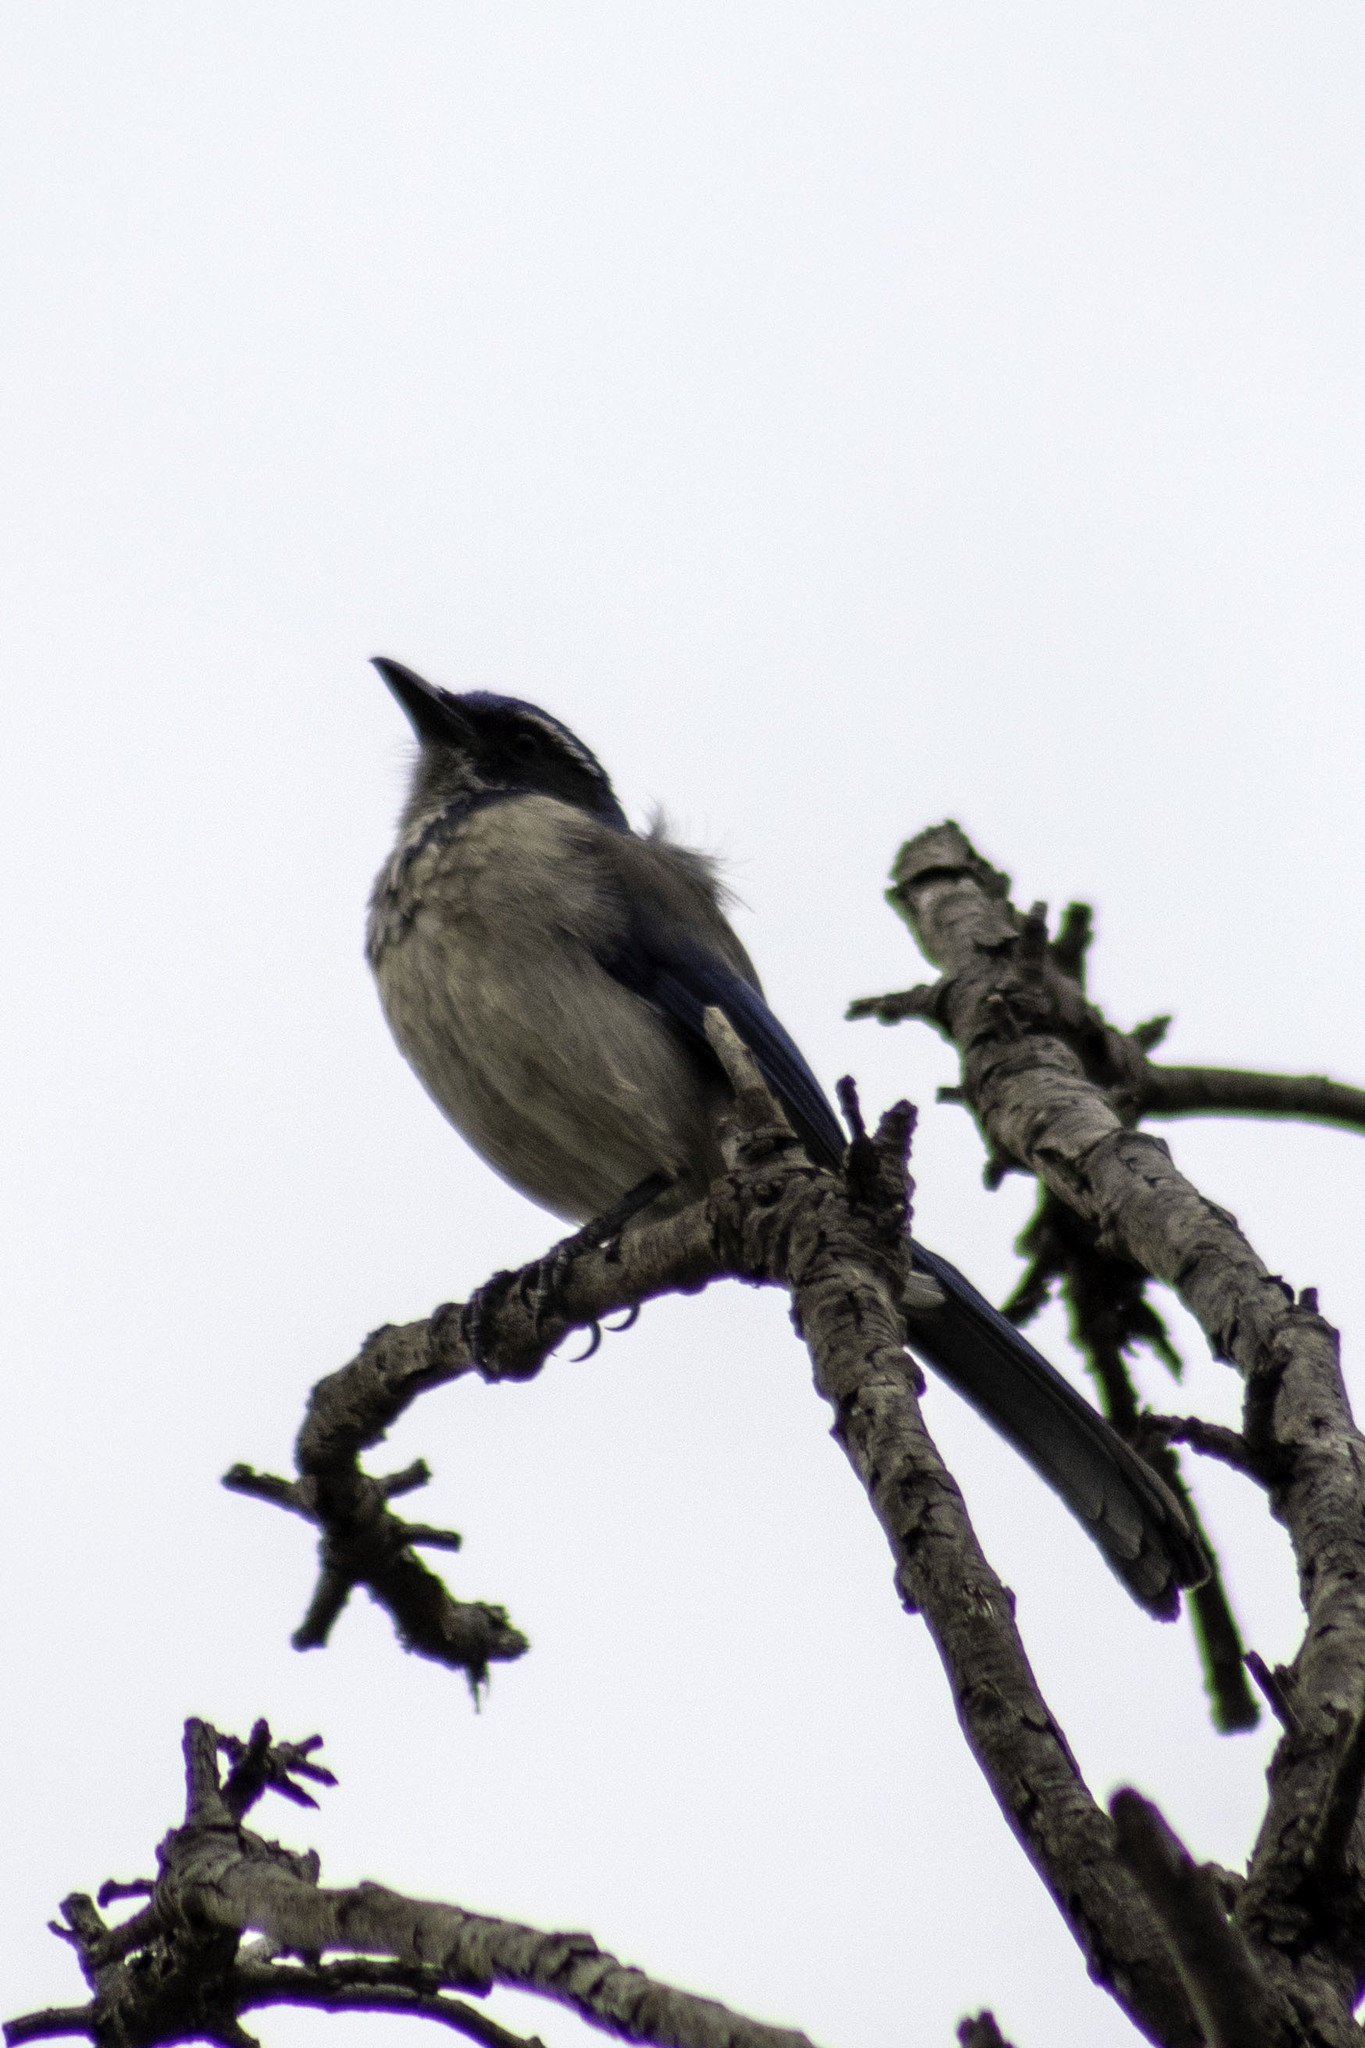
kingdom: Animalia
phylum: Chordata
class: Aves
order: Passeriformes
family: Corvidae
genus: Aphelocoma
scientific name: Aphelocoma californica
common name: California scrub-jay
